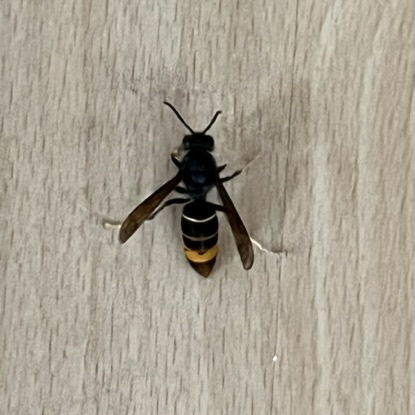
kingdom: Animalia
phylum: Arthropoda
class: Insecta
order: Hymenoptera
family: Vespidae
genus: Vespa
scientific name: Vespa velutina
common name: Asian hornet
